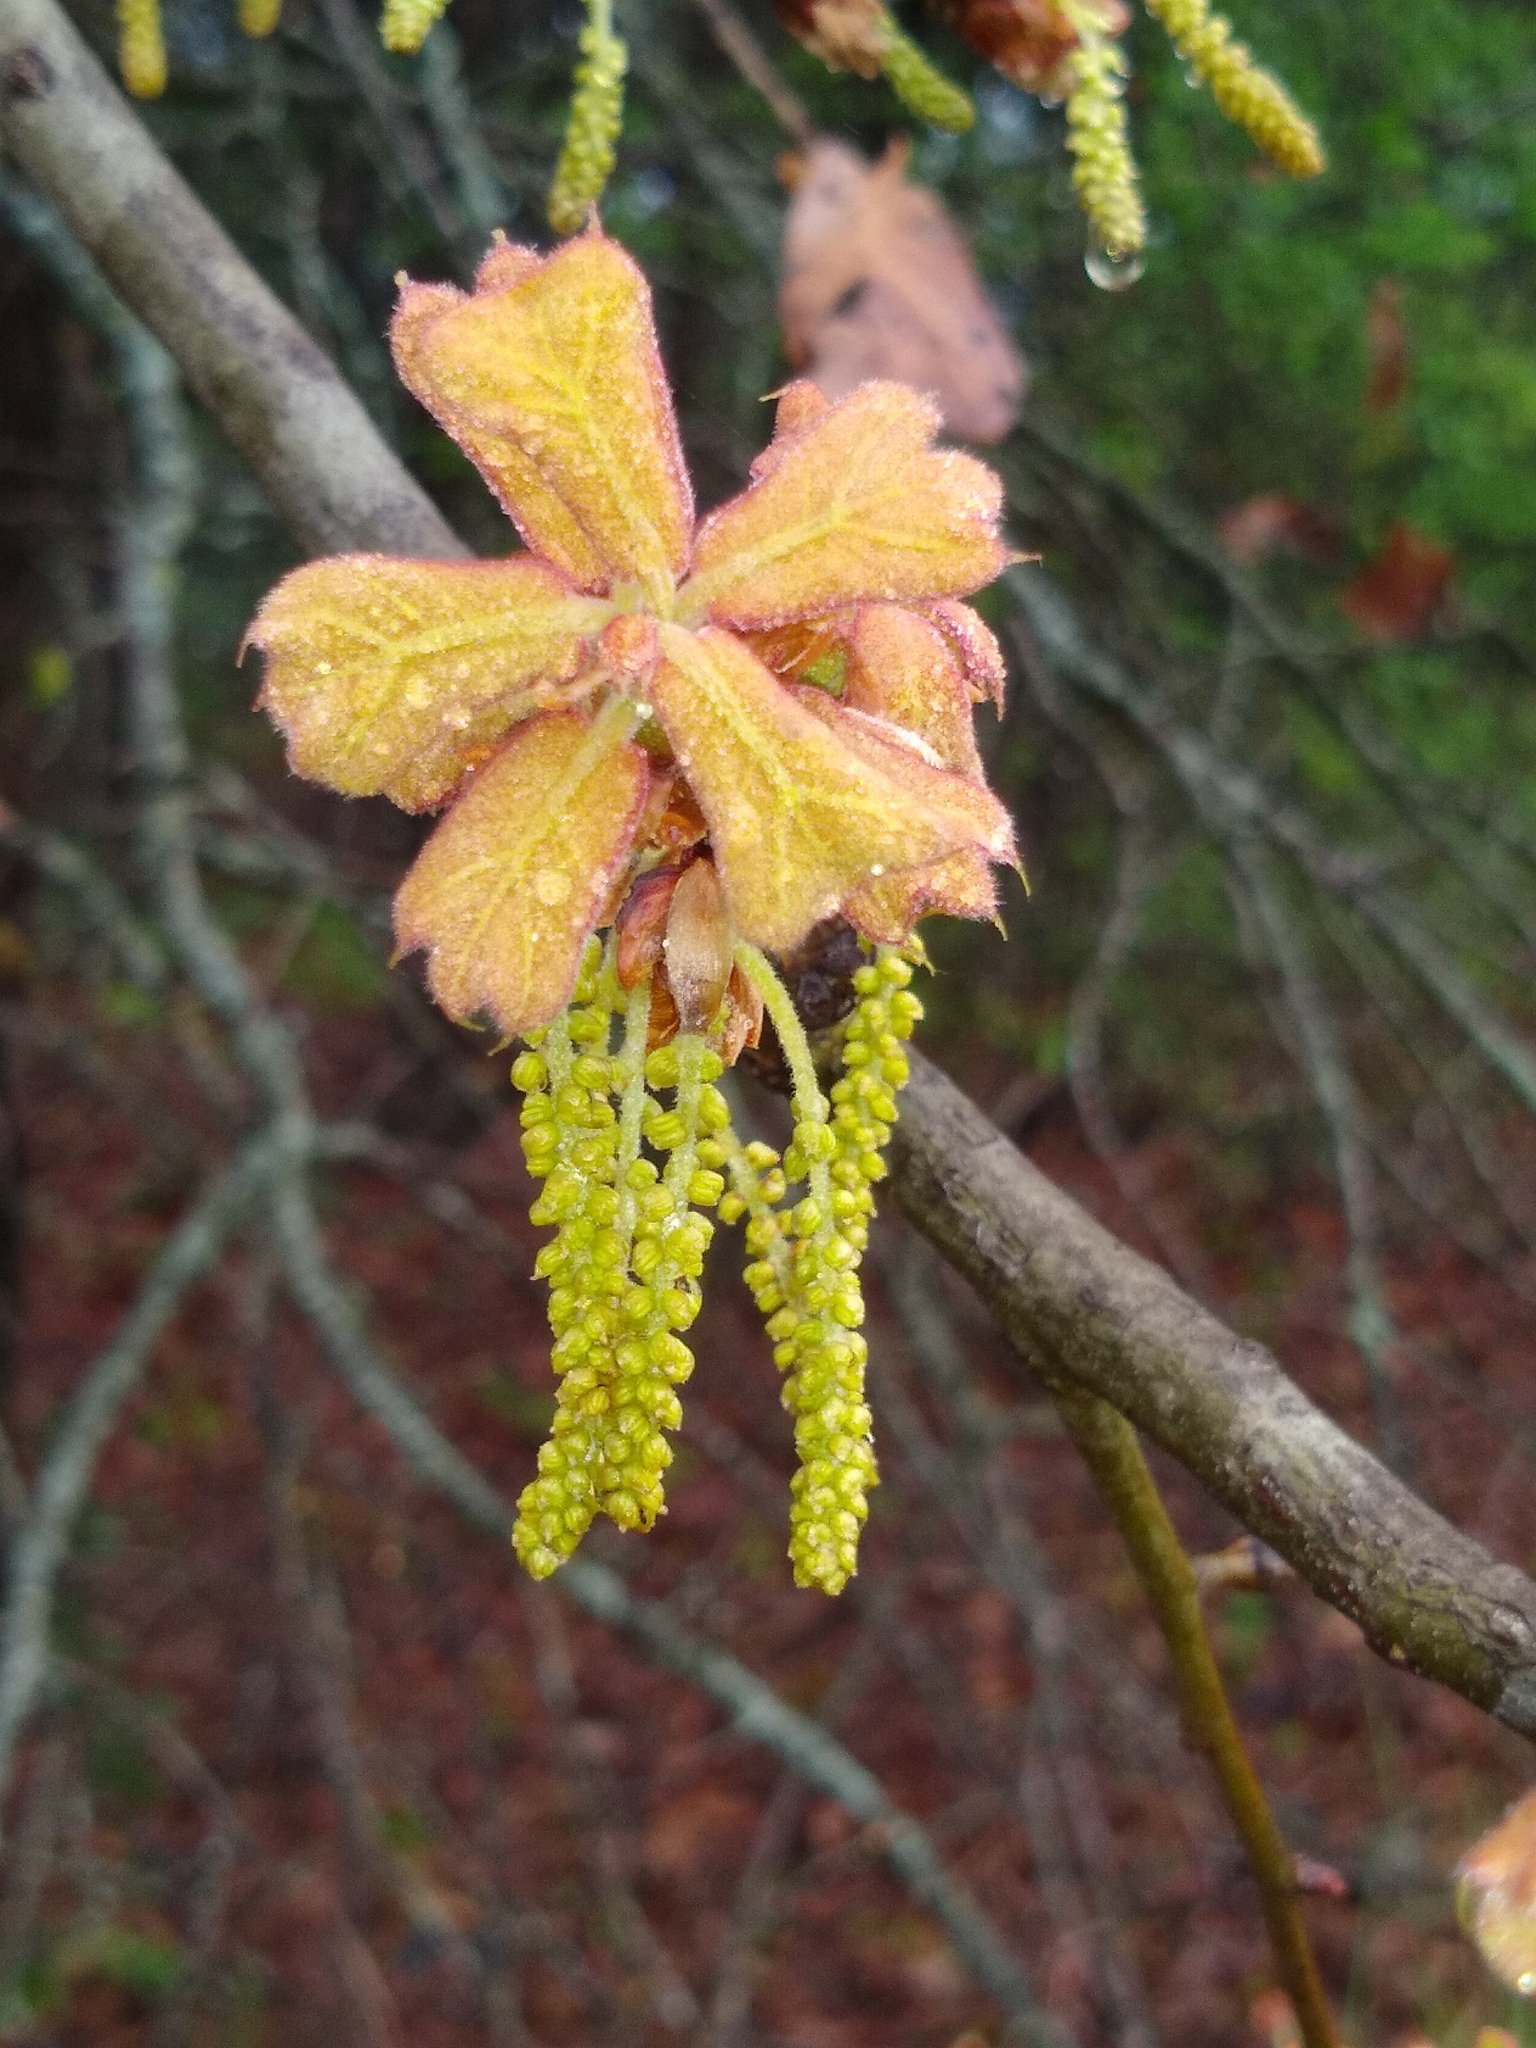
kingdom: Plantae
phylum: Tracheophyta
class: Magnoliopsida
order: Fagales
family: Fagaceae
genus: Quercus
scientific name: Quercus marilandica
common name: Blackjack oak
